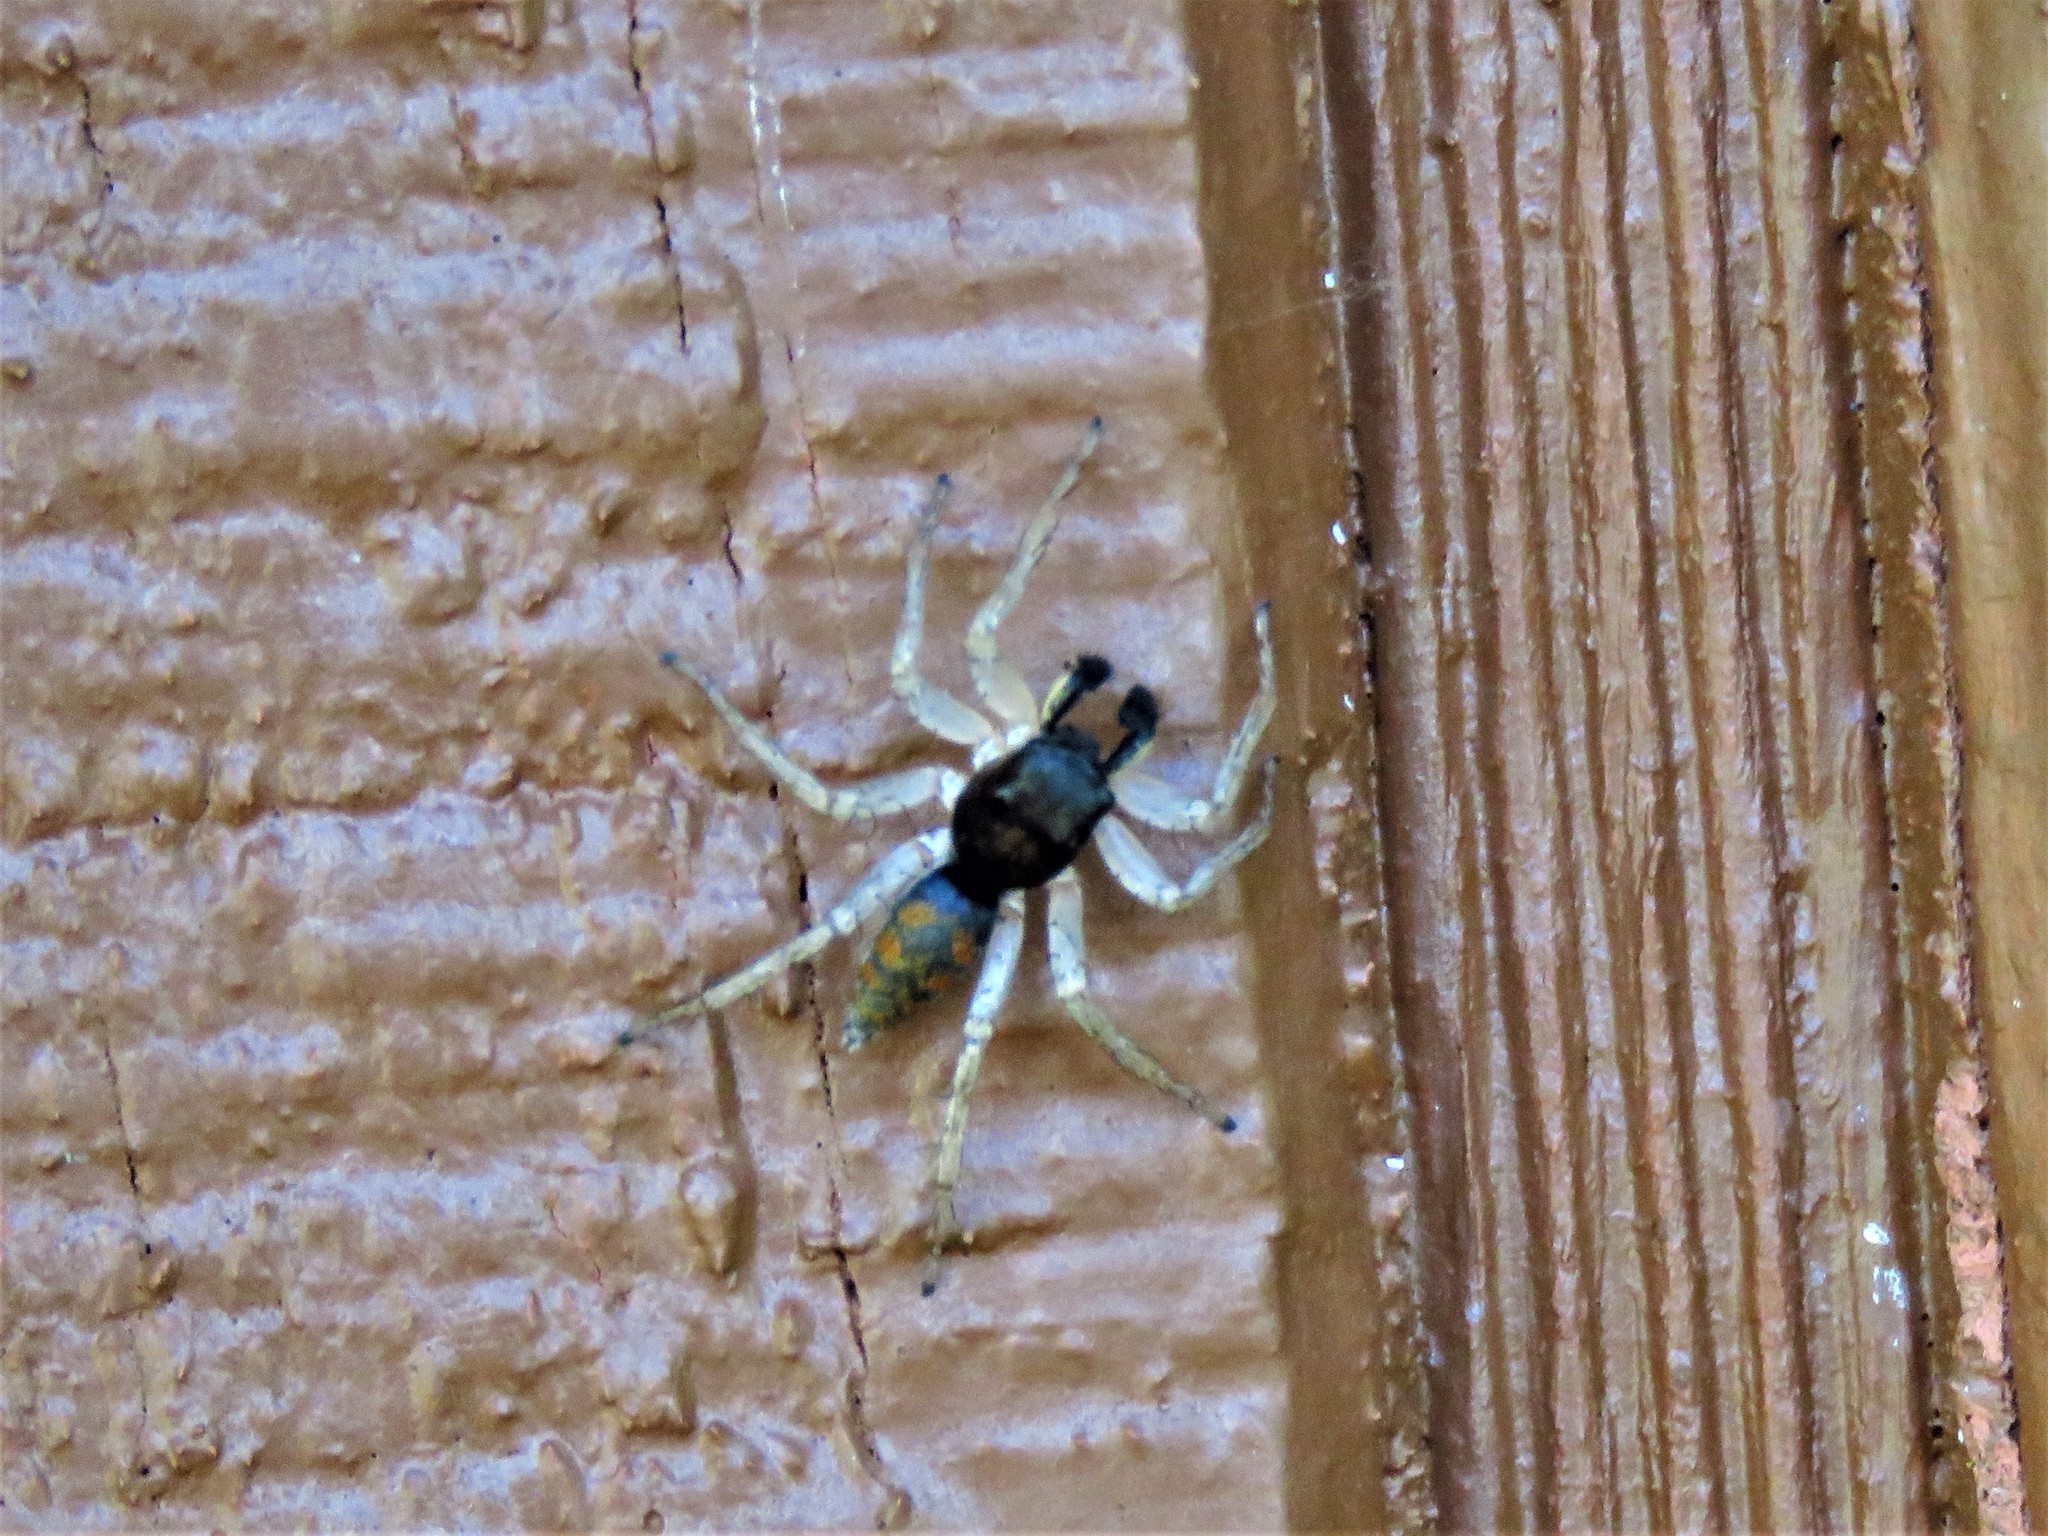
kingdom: Animalia
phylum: Arthropoda
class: Arachnida
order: Araneae
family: Salticidae
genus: Maevia
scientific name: Maevia inclemens
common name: Dimorphic jumper
